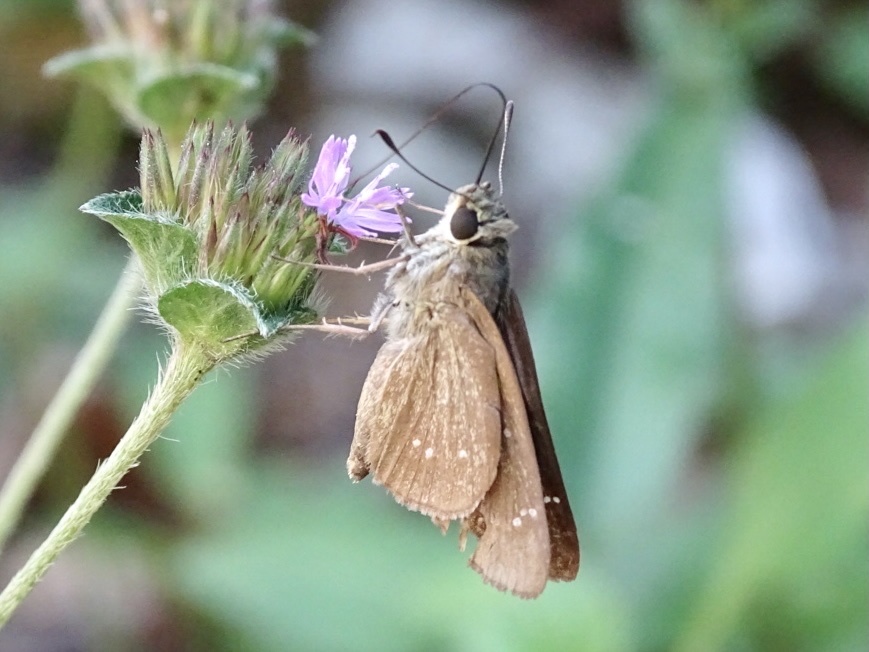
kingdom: Animalia
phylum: Arthropoda
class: Insecta
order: Lepidoptera
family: Hesperiidae
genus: Borbo
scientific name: Borbo cinnara
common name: Formosan swift
